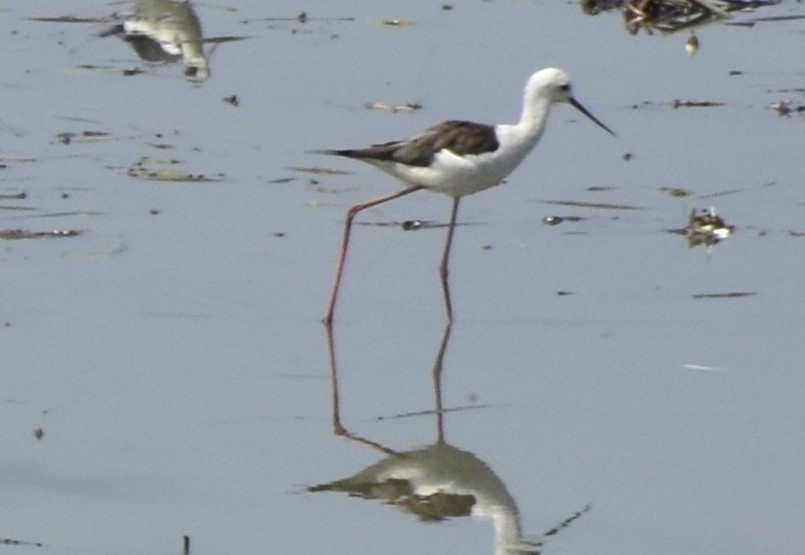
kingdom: Animalia
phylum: Chordata
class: Aves
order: Charadriiformes
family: Recurvirostridae
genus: Himantopus
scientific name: Himantopus himantopus
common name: Black-winged stilt
